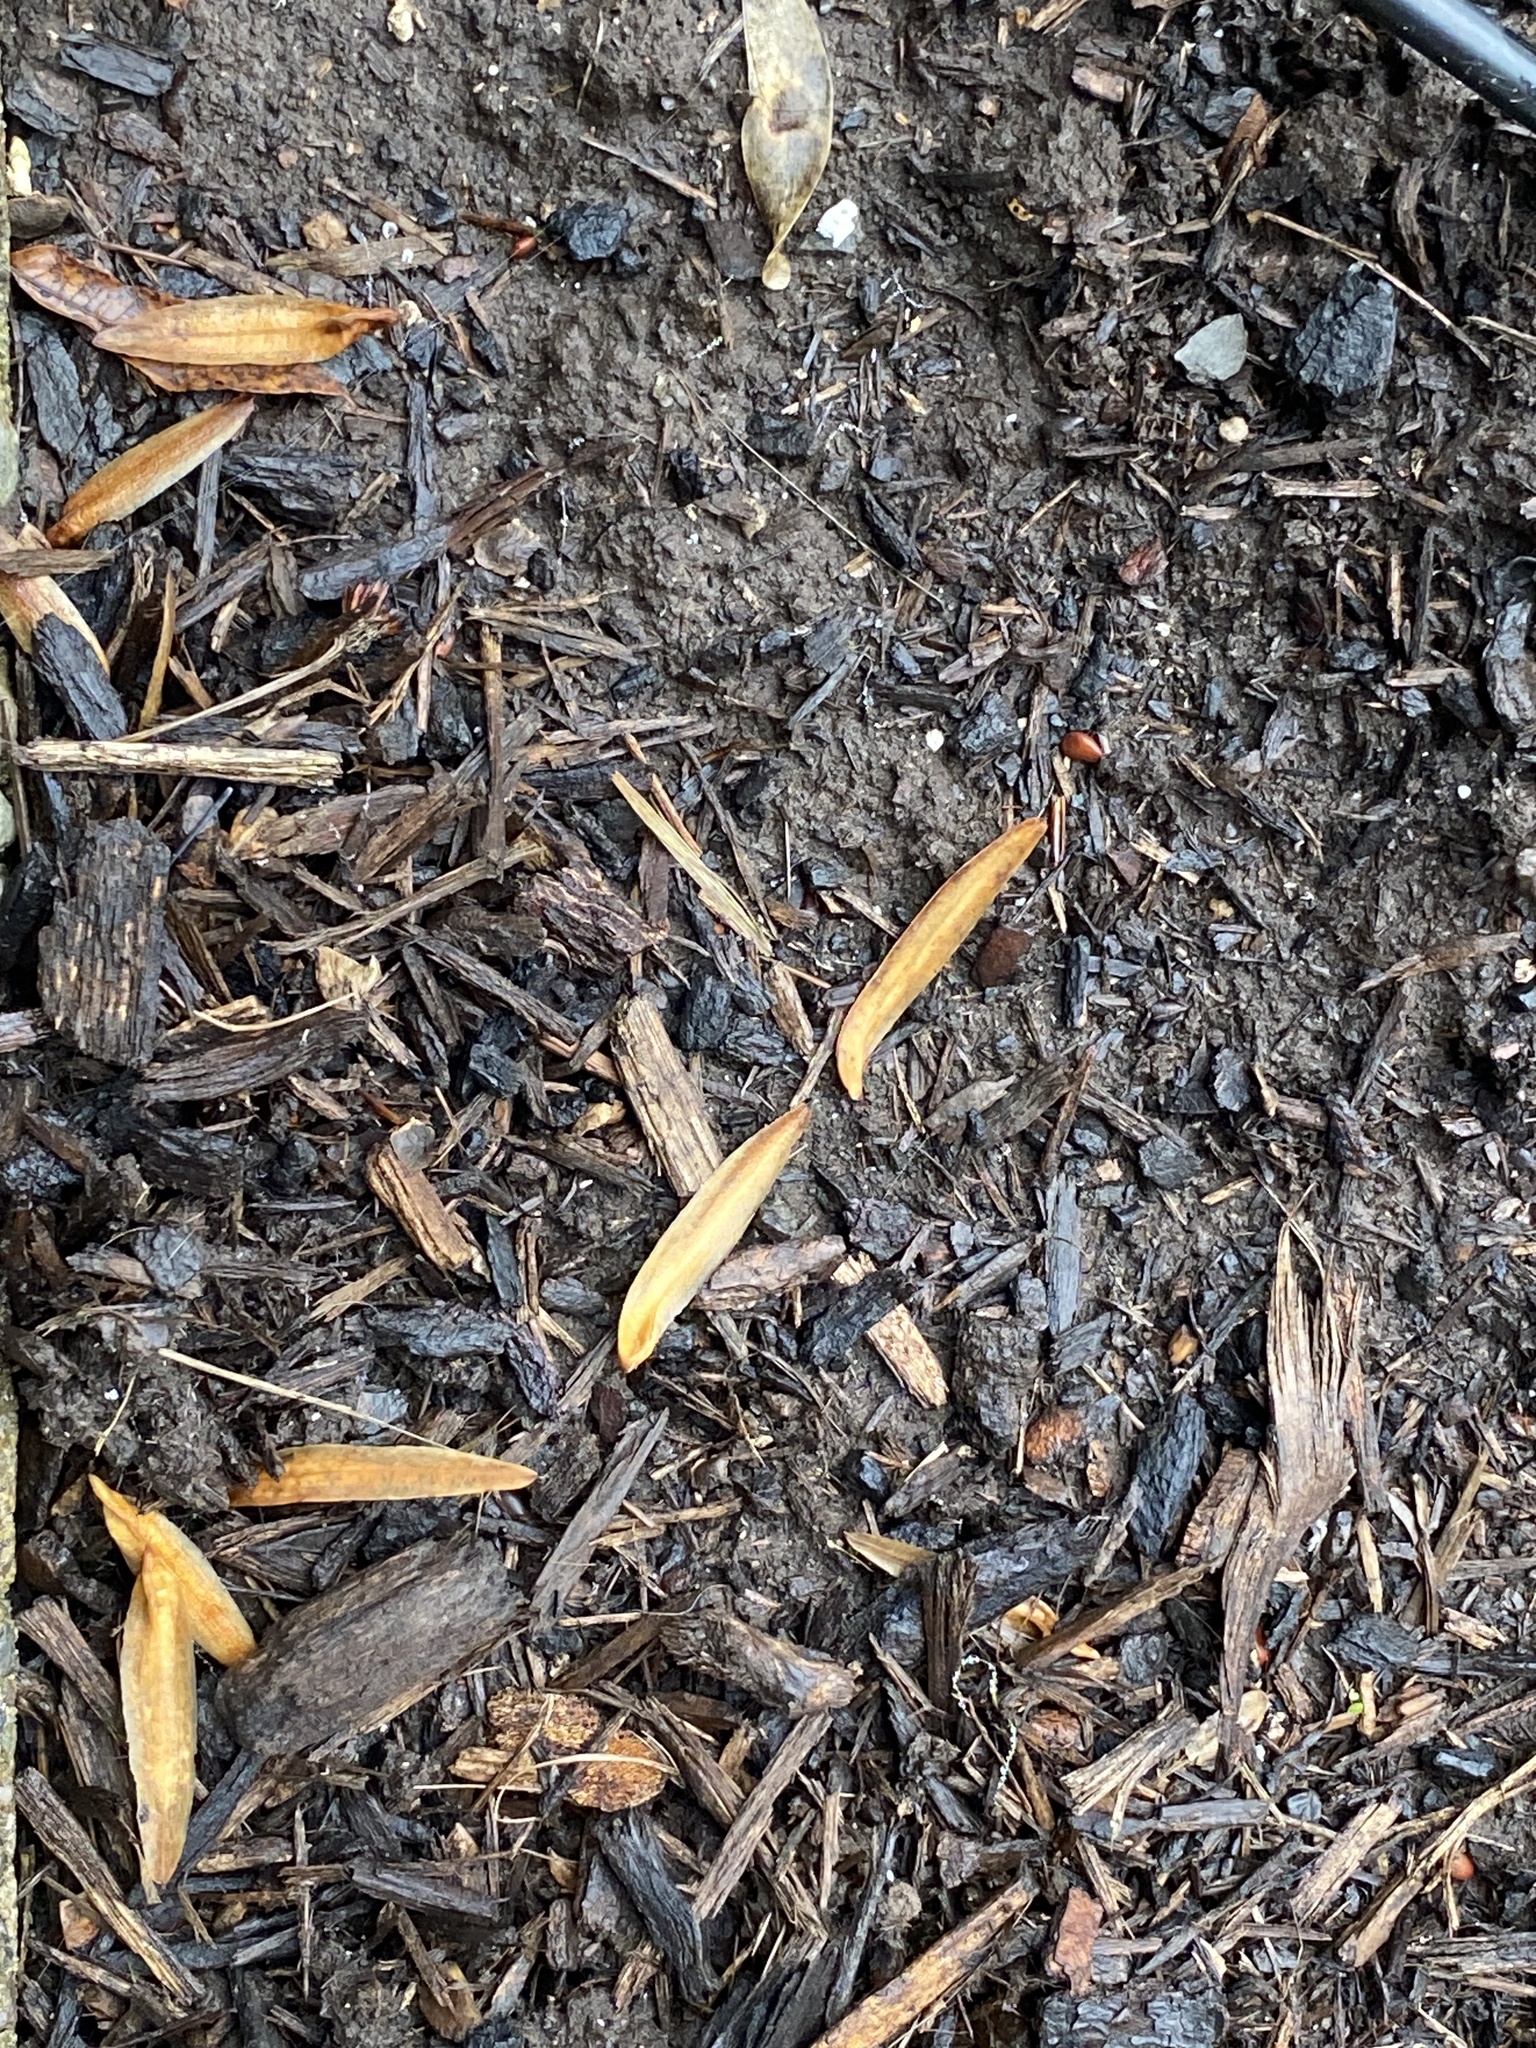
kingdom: Plantae
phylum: Tracheophyta
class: Magnoliopsida
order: Magnoliales
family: Magnoliaceae
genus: Liriodendron
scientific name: Liriodendron tulipifera
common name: Tulip tree
